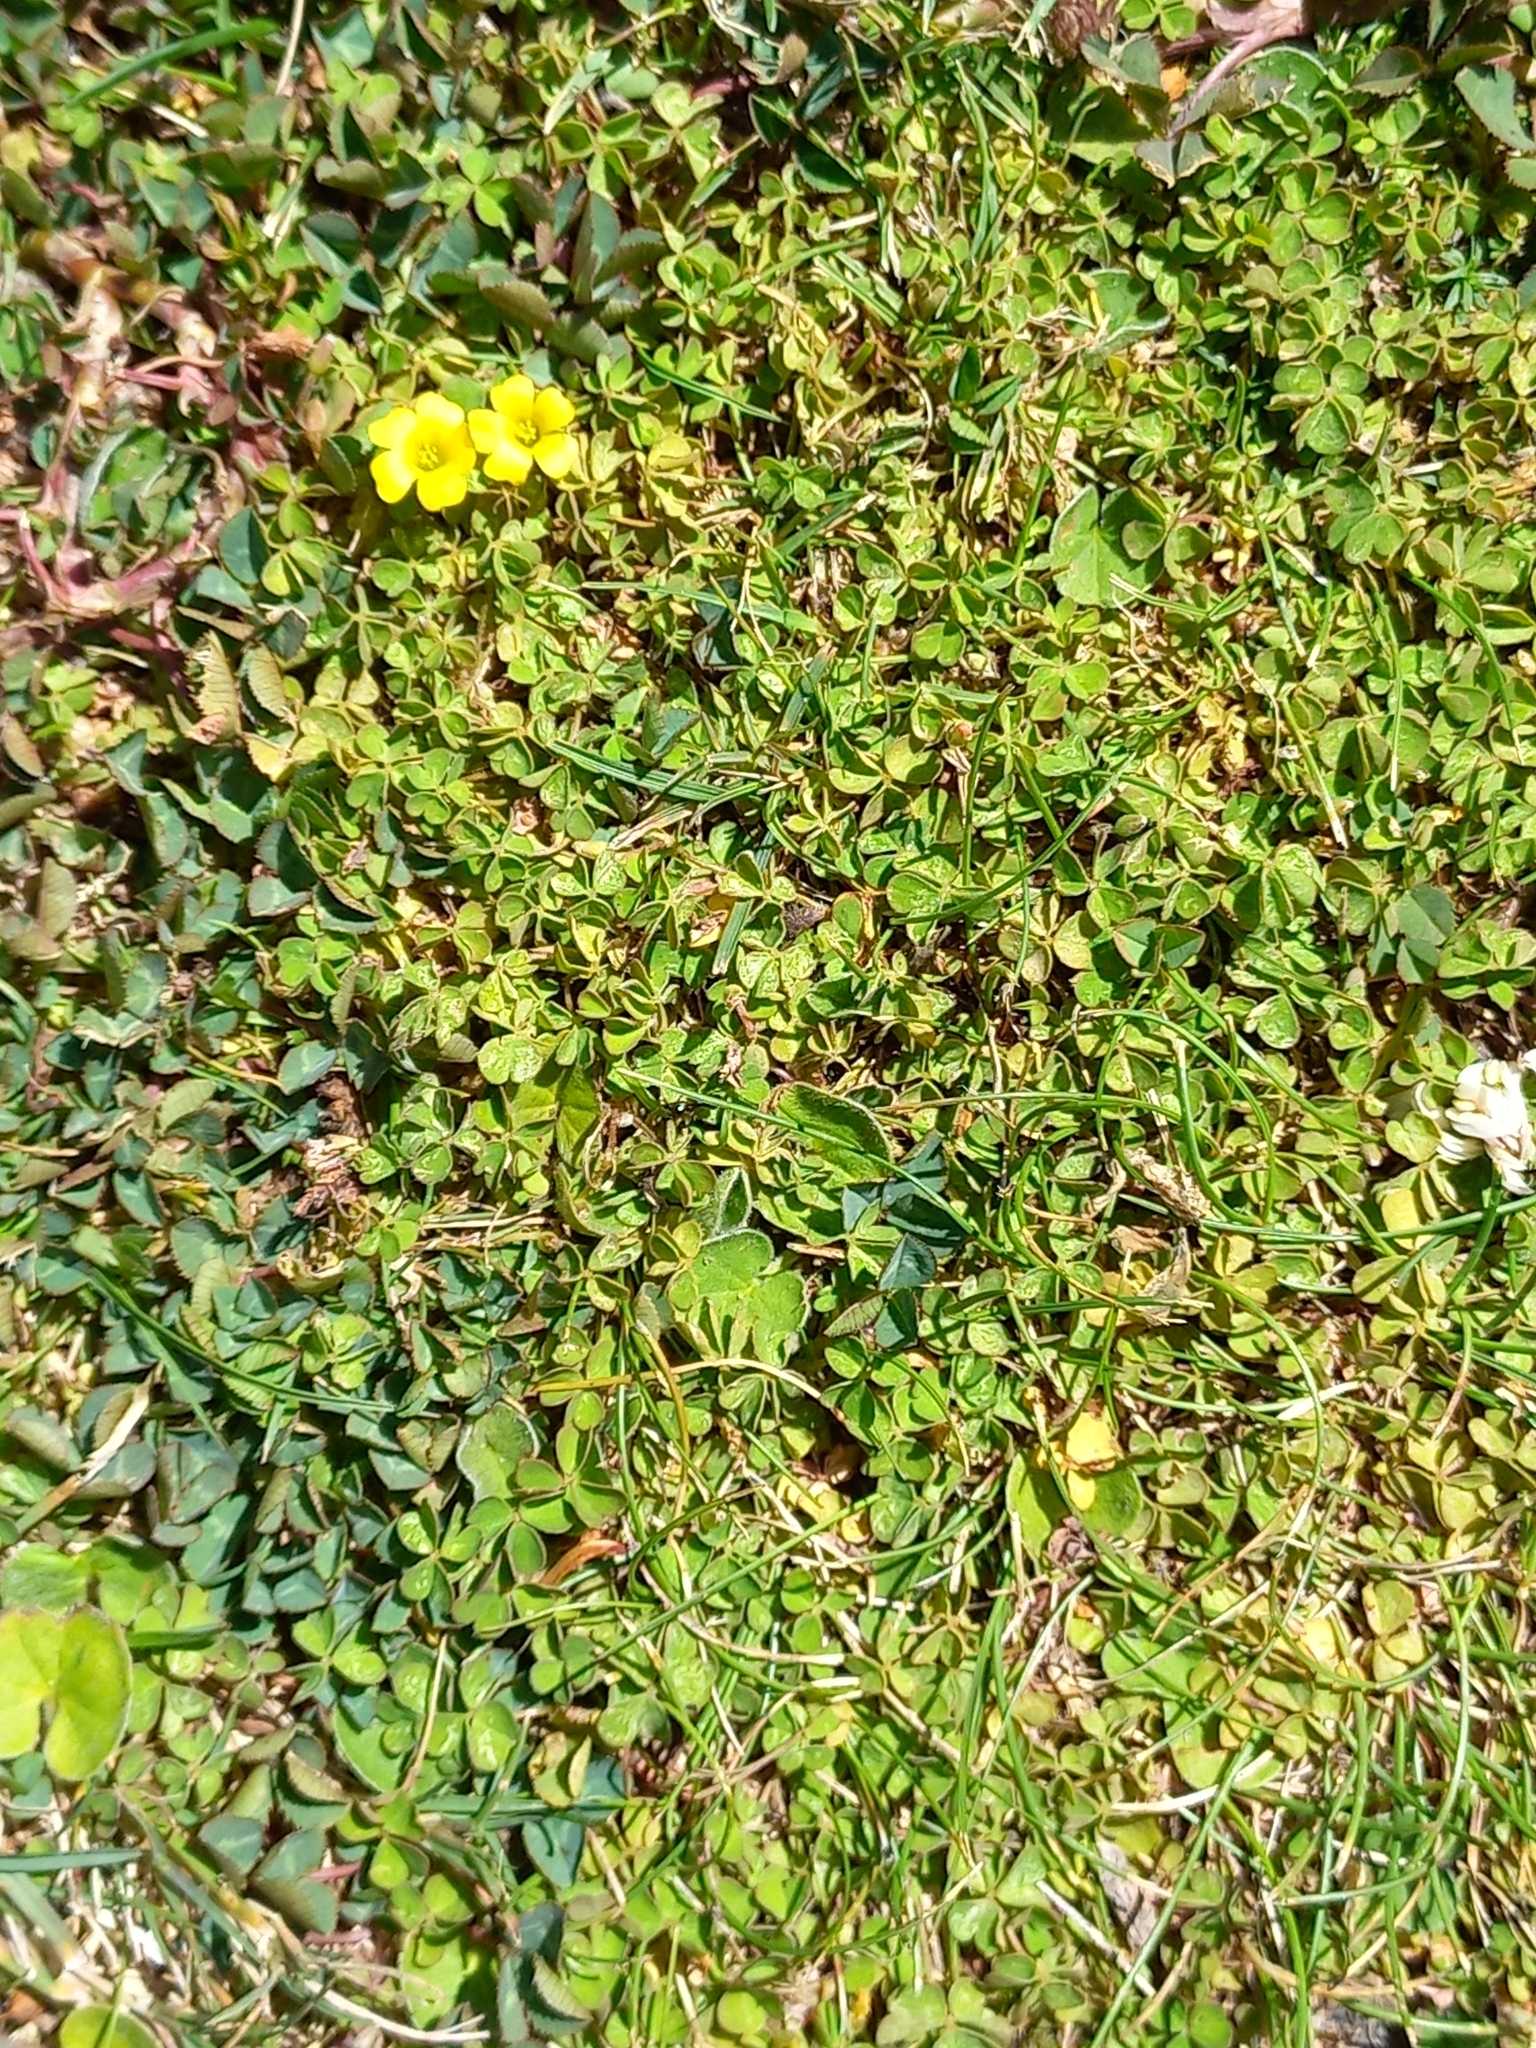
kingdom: Plantae
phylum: Tracheophyta
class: Magnoliopsida
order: Oxalidales
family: Oxalidaceae
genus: Oxalis
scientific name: Oxalis exilis
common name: Least yellow-sorrel
